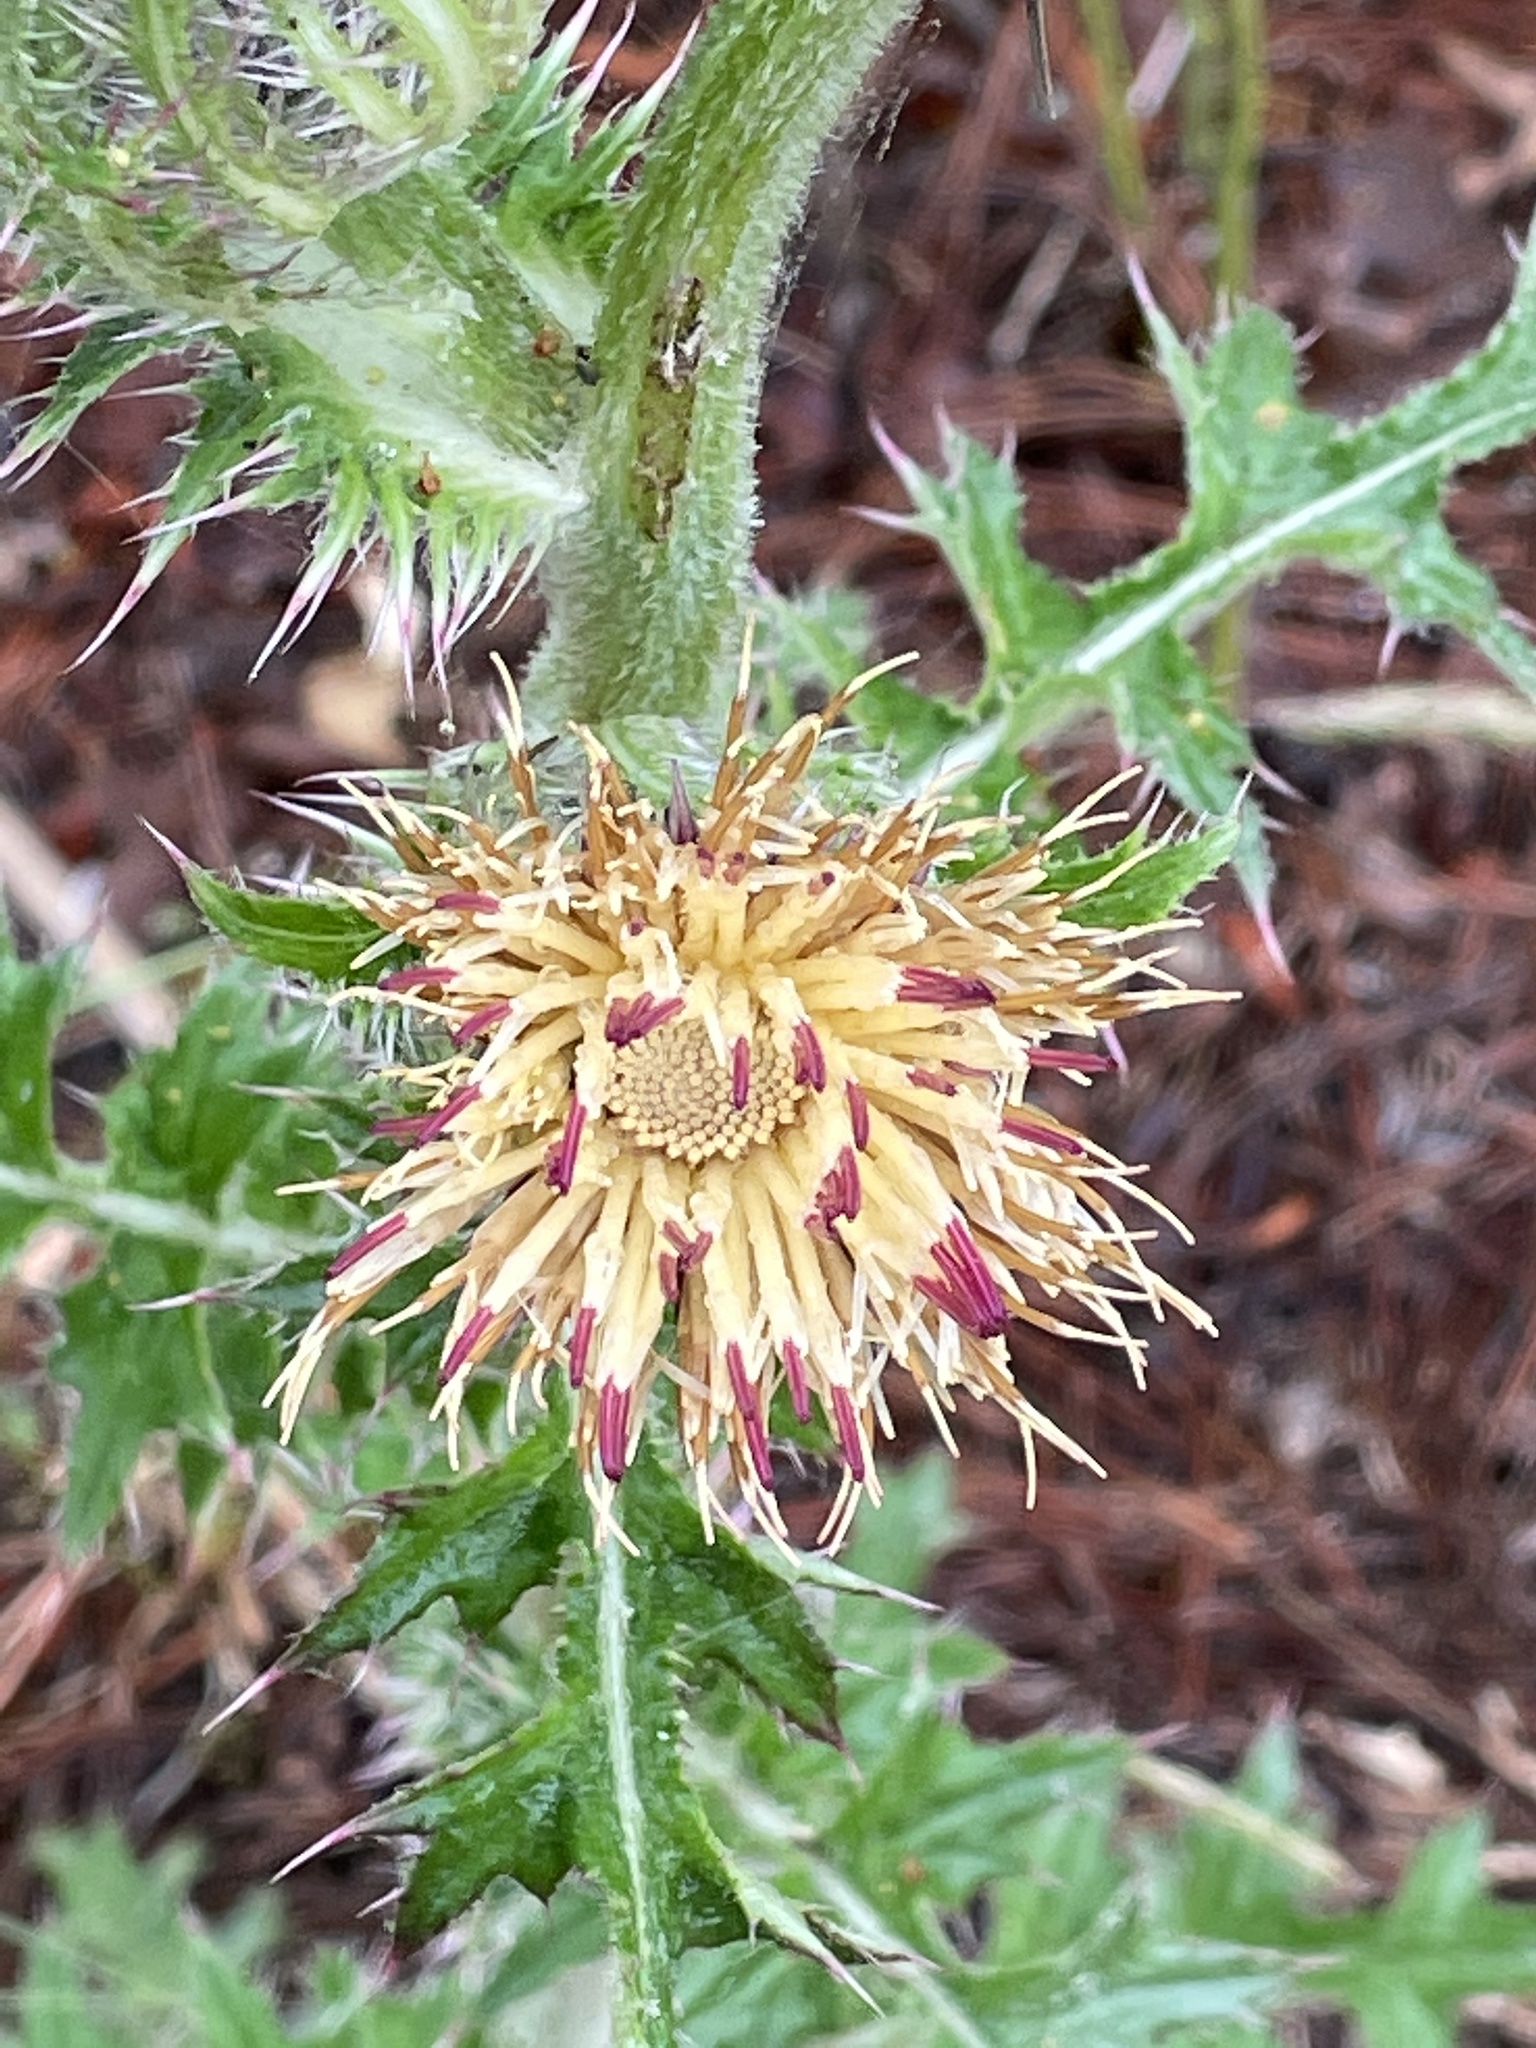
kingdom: Plantae
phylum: Tracheophyta
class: Magnoliopsida
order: Asterales
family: Asteraceae
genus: Cirsium
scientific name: Cirsium horridulum
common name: Bristly thistle
